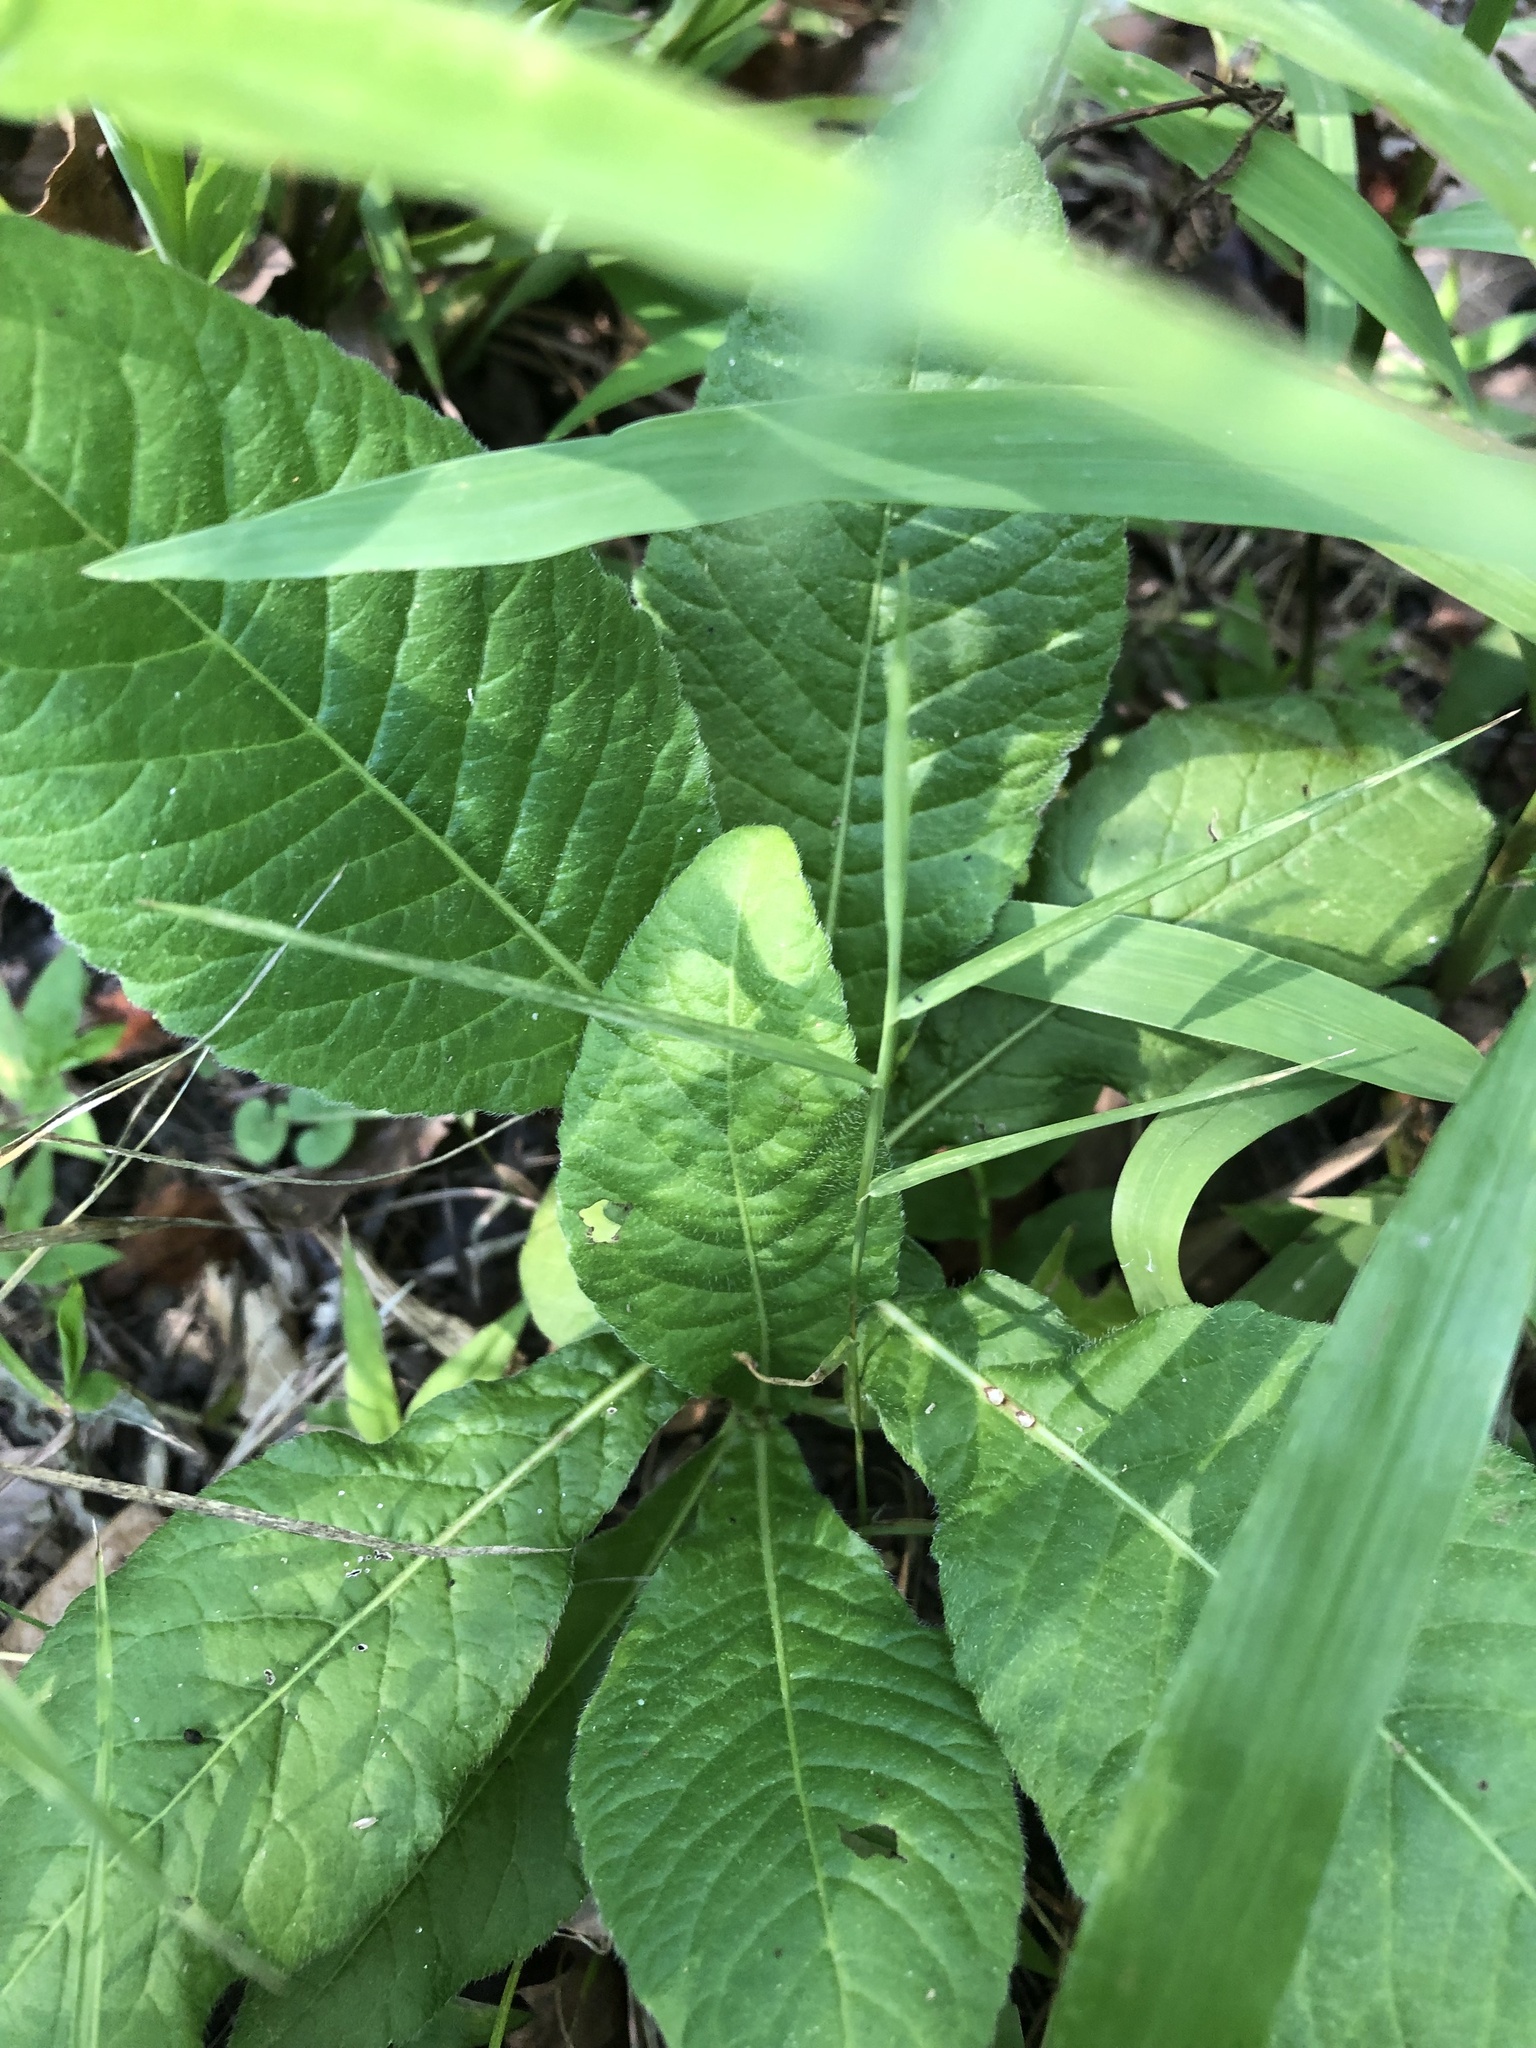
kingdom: Plantae
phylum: Tracheophyta
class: Magnoliopsida
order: Asterales
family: Asteraceae
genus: Elephantopus
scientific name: Elephantopus carolinianus
